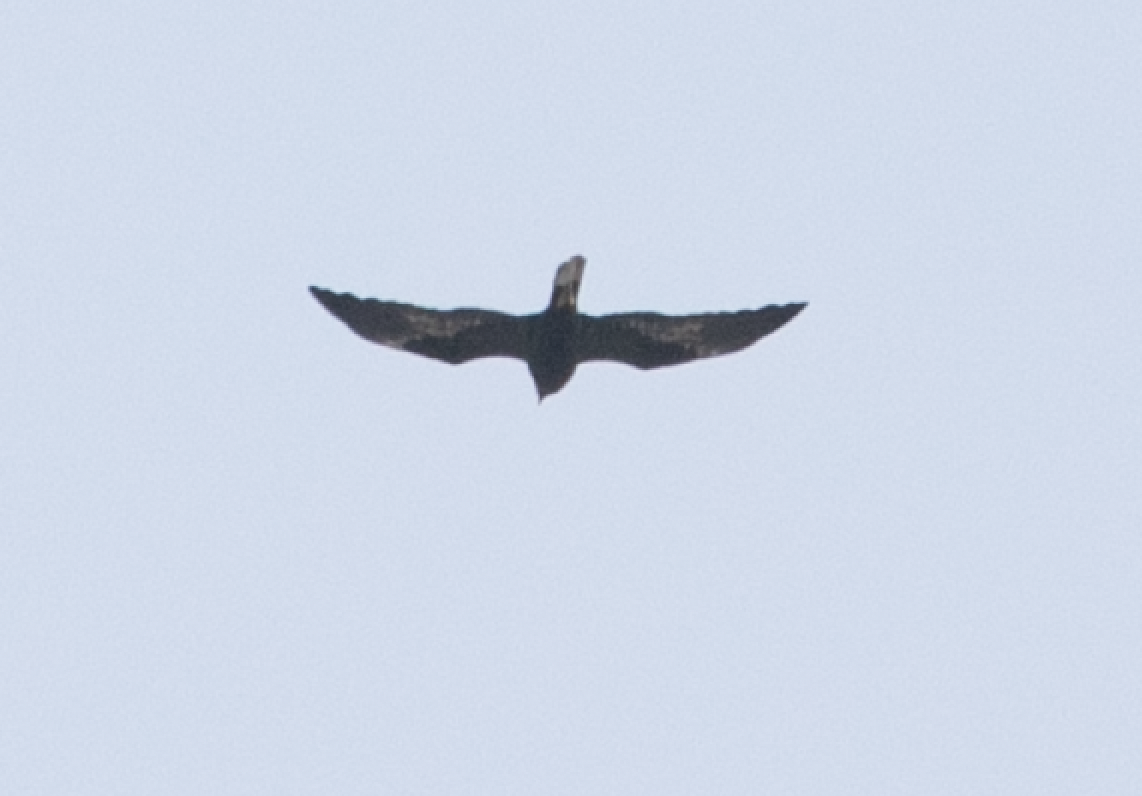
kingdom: Animalia
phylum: Chordata
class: Aves
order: Accipitriformes
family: Accipitridae
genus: Circus
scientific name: Circus aeruginosus
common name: Western marsh harrier
